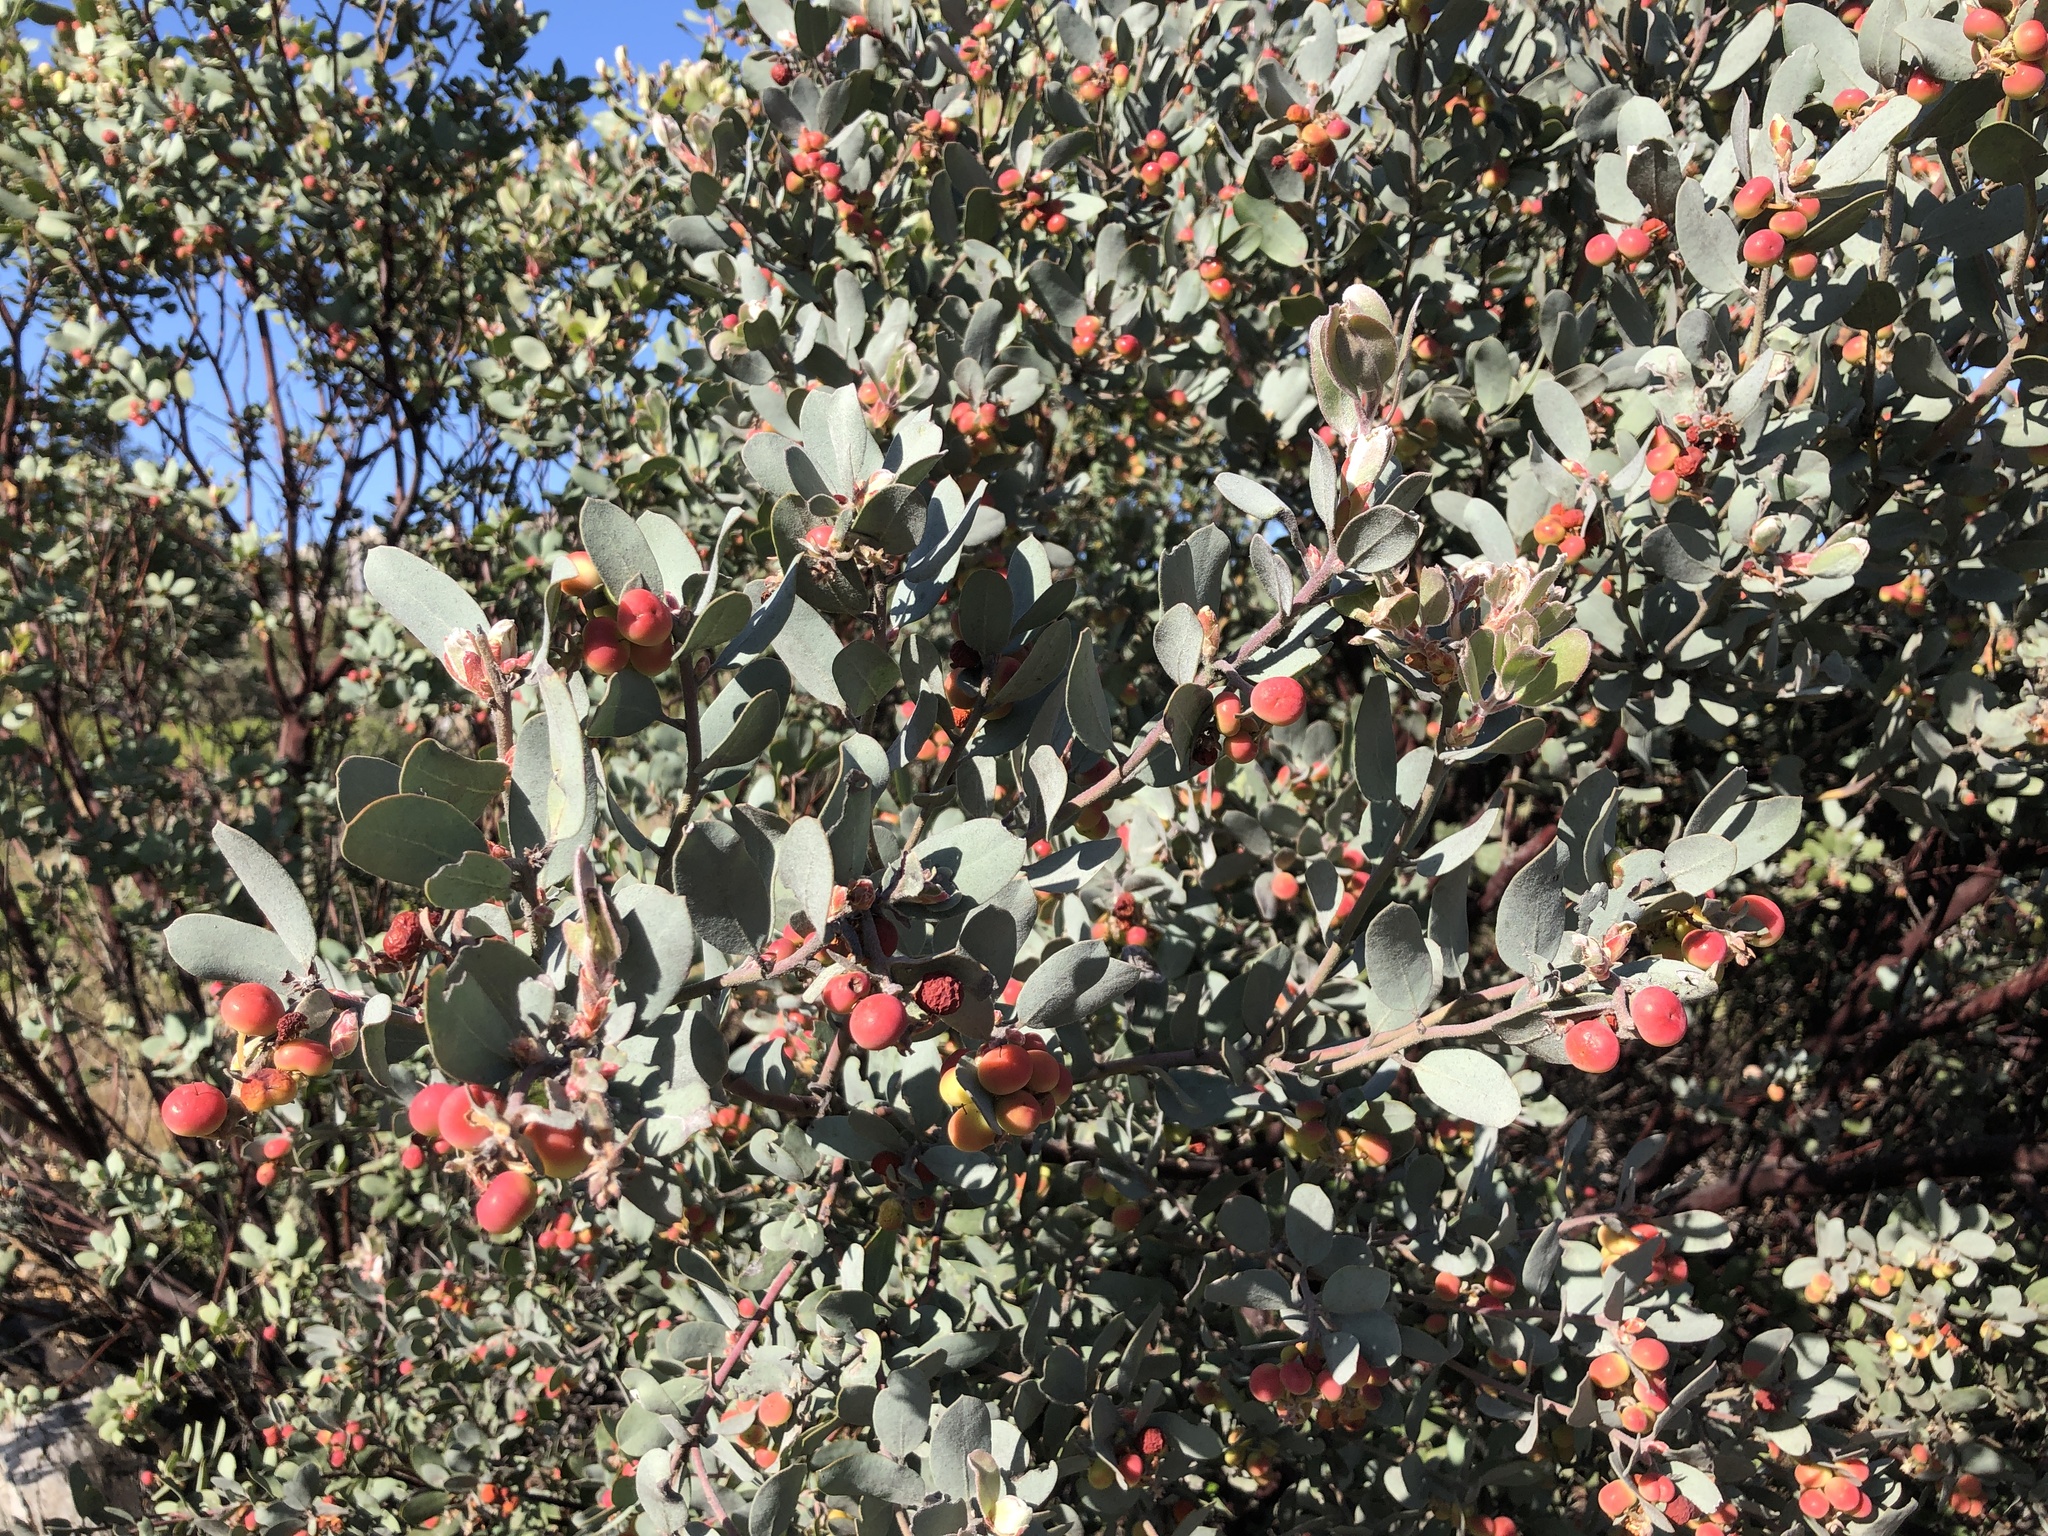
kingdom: Plantae
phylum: Tracheophyta
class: Magnoliopsida
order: Ericales
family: Ericaceae
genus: Arctostaphylos
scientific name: Arctostaphylos silvicola
